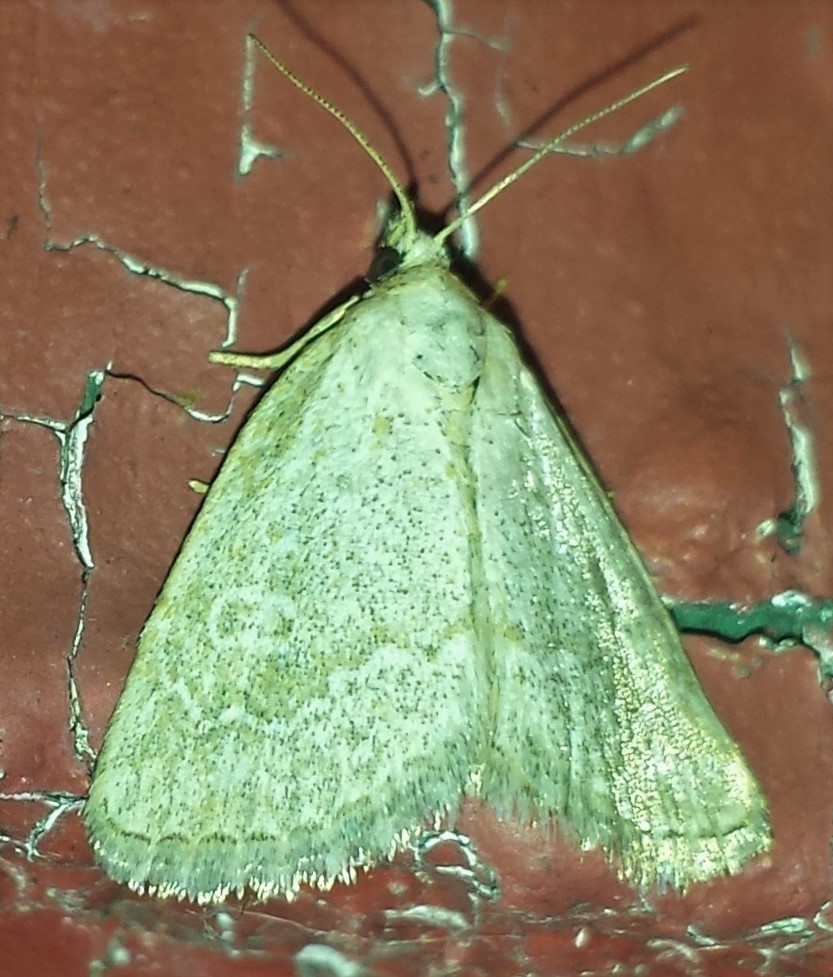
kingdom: Animalia
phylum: Arthropoda
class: Insecta
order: Lepidoptera
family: Noctuidae
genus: Protodeltote
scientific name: Protodeltote albidula
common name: Pale glyph
